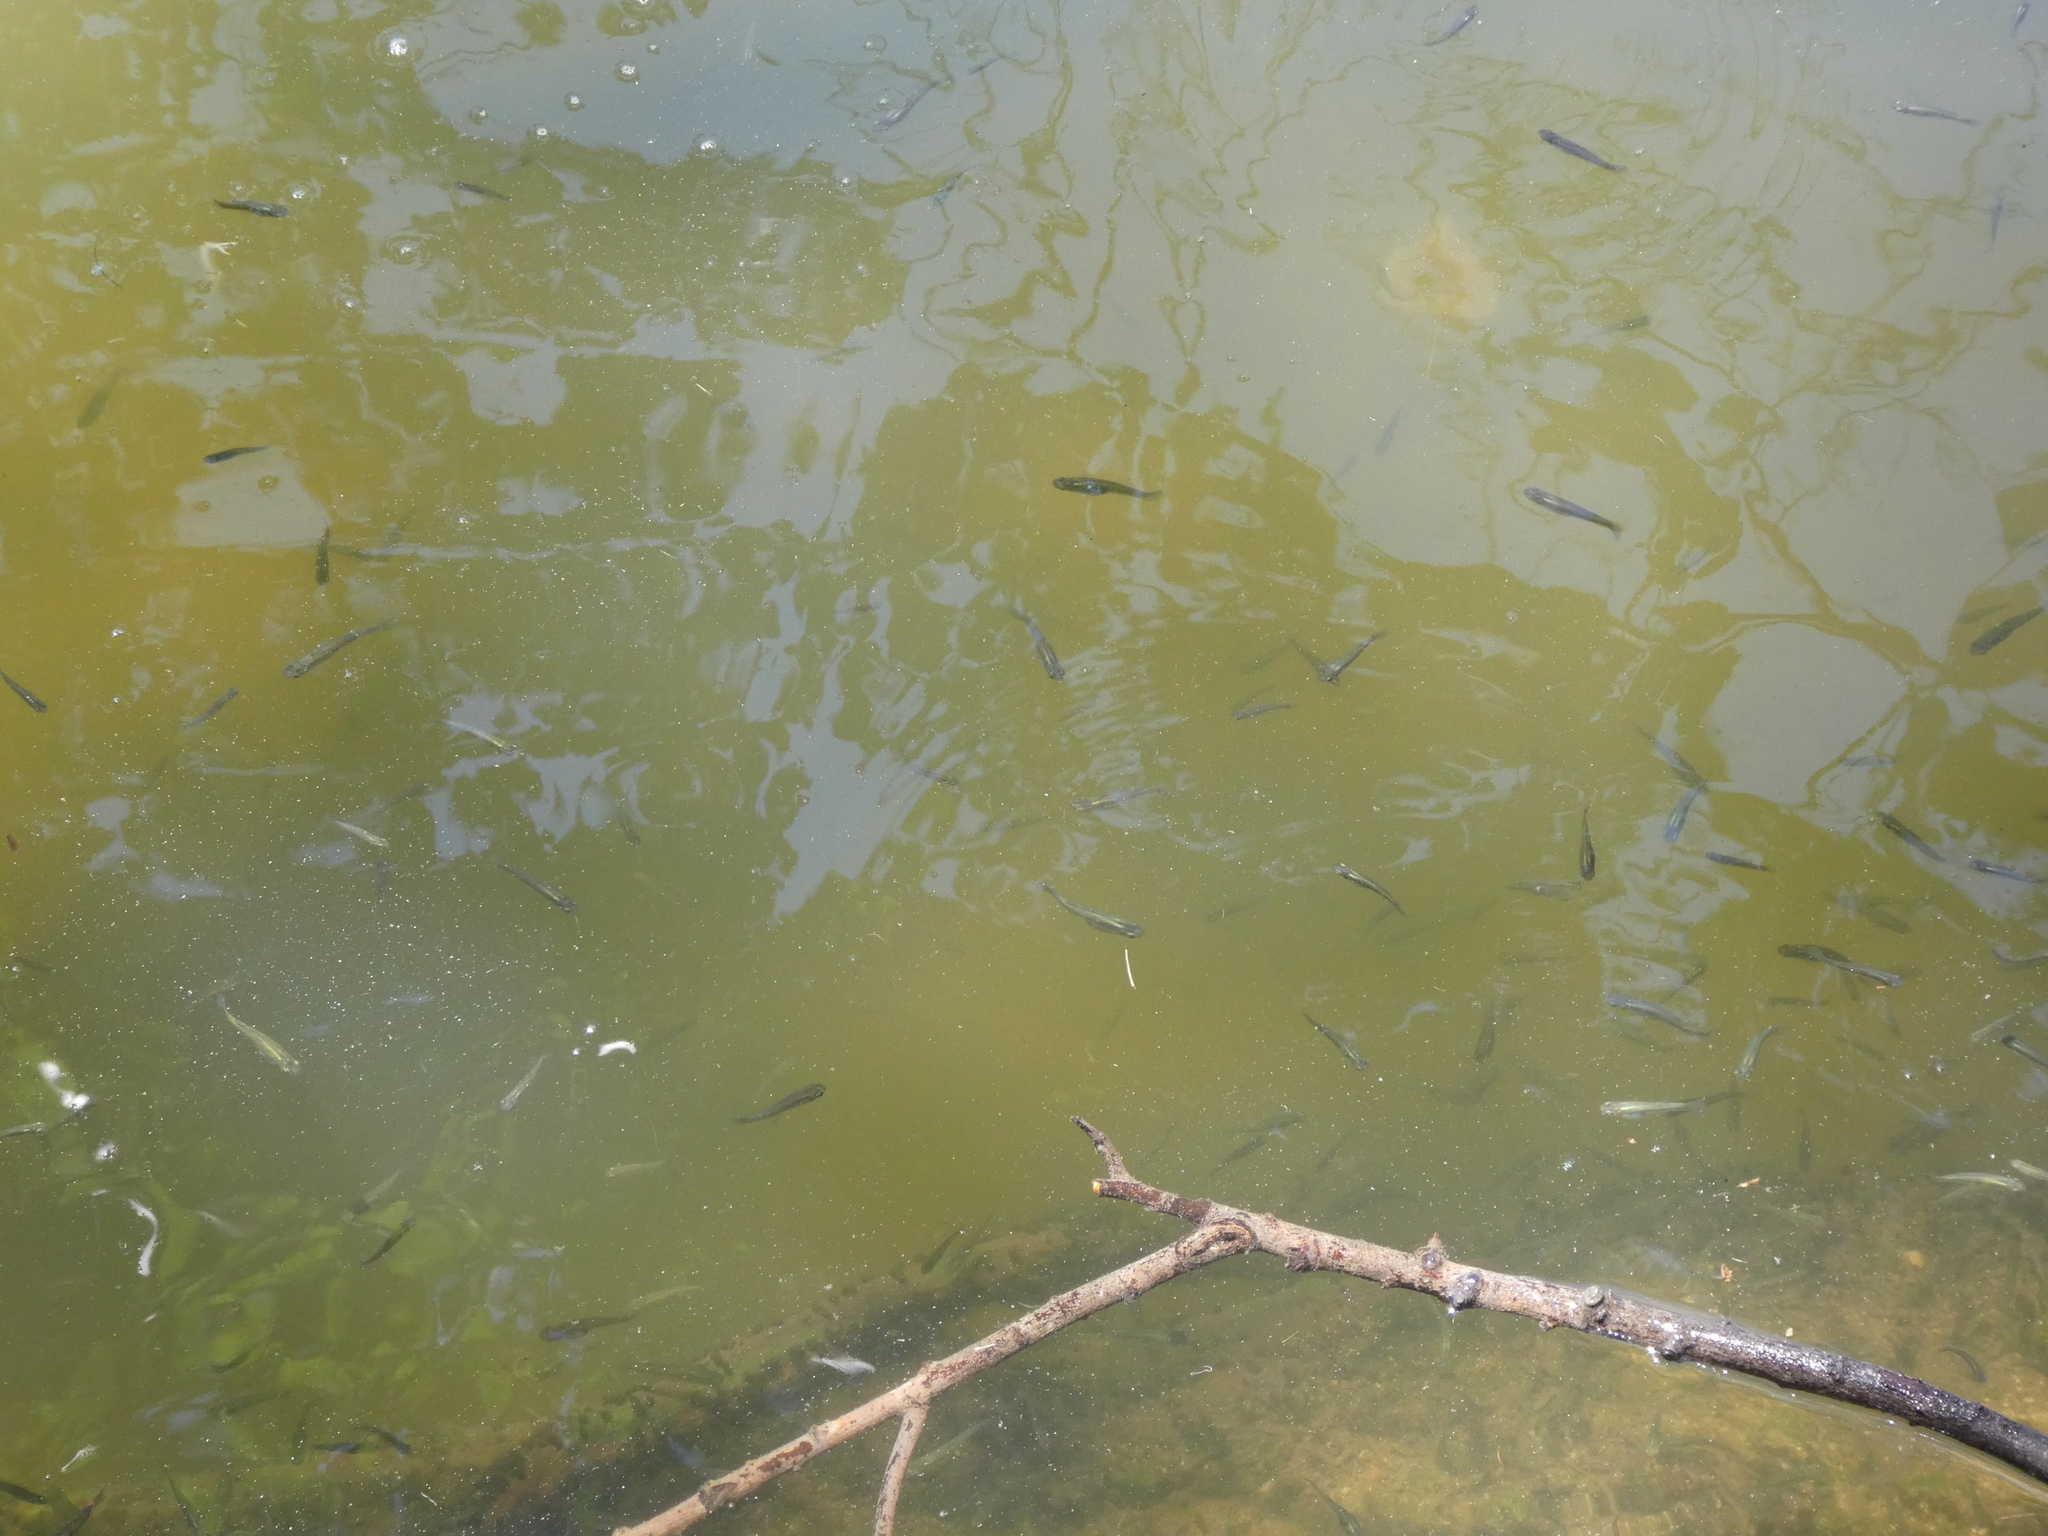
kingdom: Animalia
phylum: Chordata
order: Cyprinodontiformes
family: Poeciliidae
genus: Gambusia
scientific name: Gambusia affinis
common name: Mosquitofish
